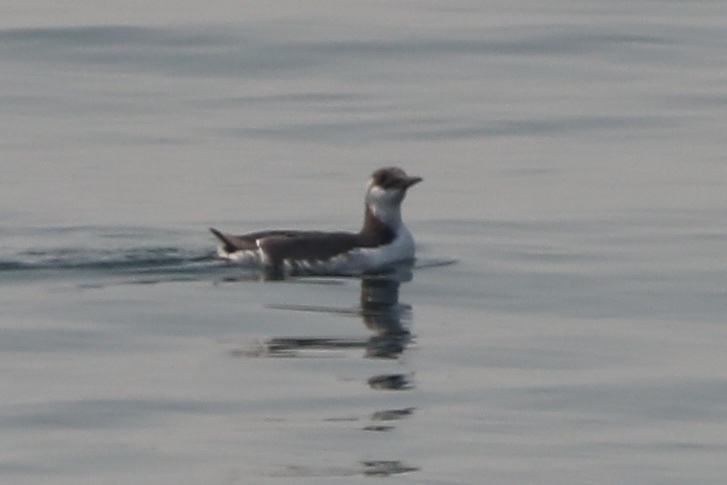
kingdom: Animalia
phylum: Chordata
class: Aves
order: Charadriiformes
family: Alcidae
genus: Uria
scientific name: Uria aalge
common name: Common murre
